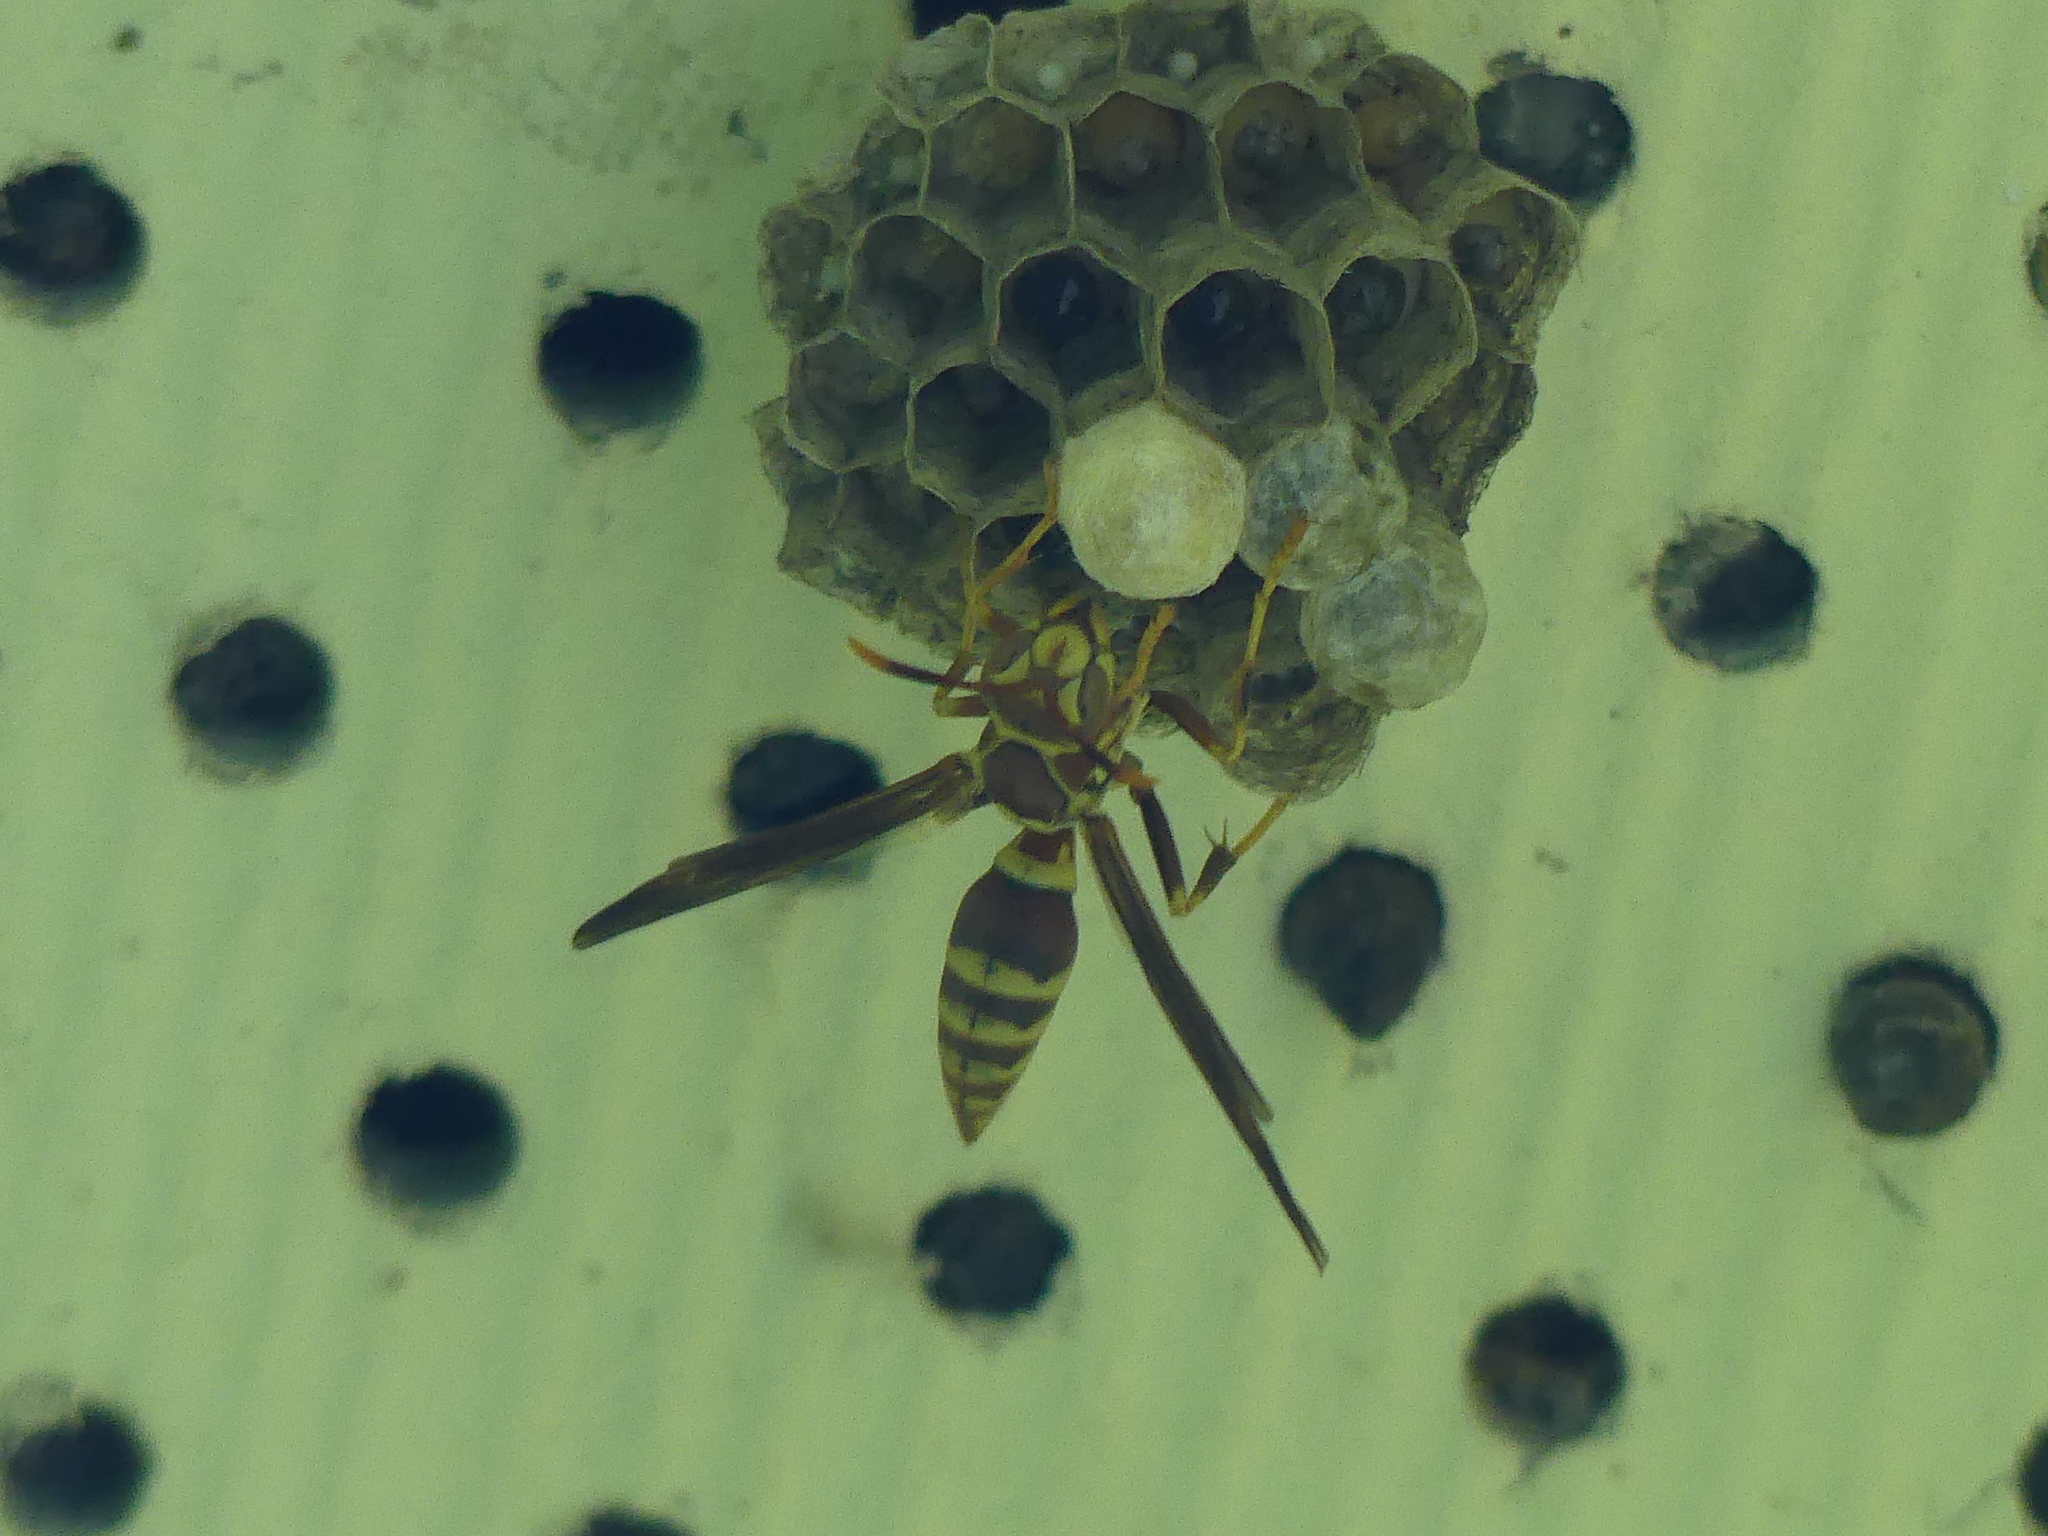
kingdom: Animalia
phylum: Arthropoda
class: Insecta
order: Hymenoptera
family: Eumenidae
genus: Polistes
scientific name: Polistes exclamans
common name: Paper wasp
